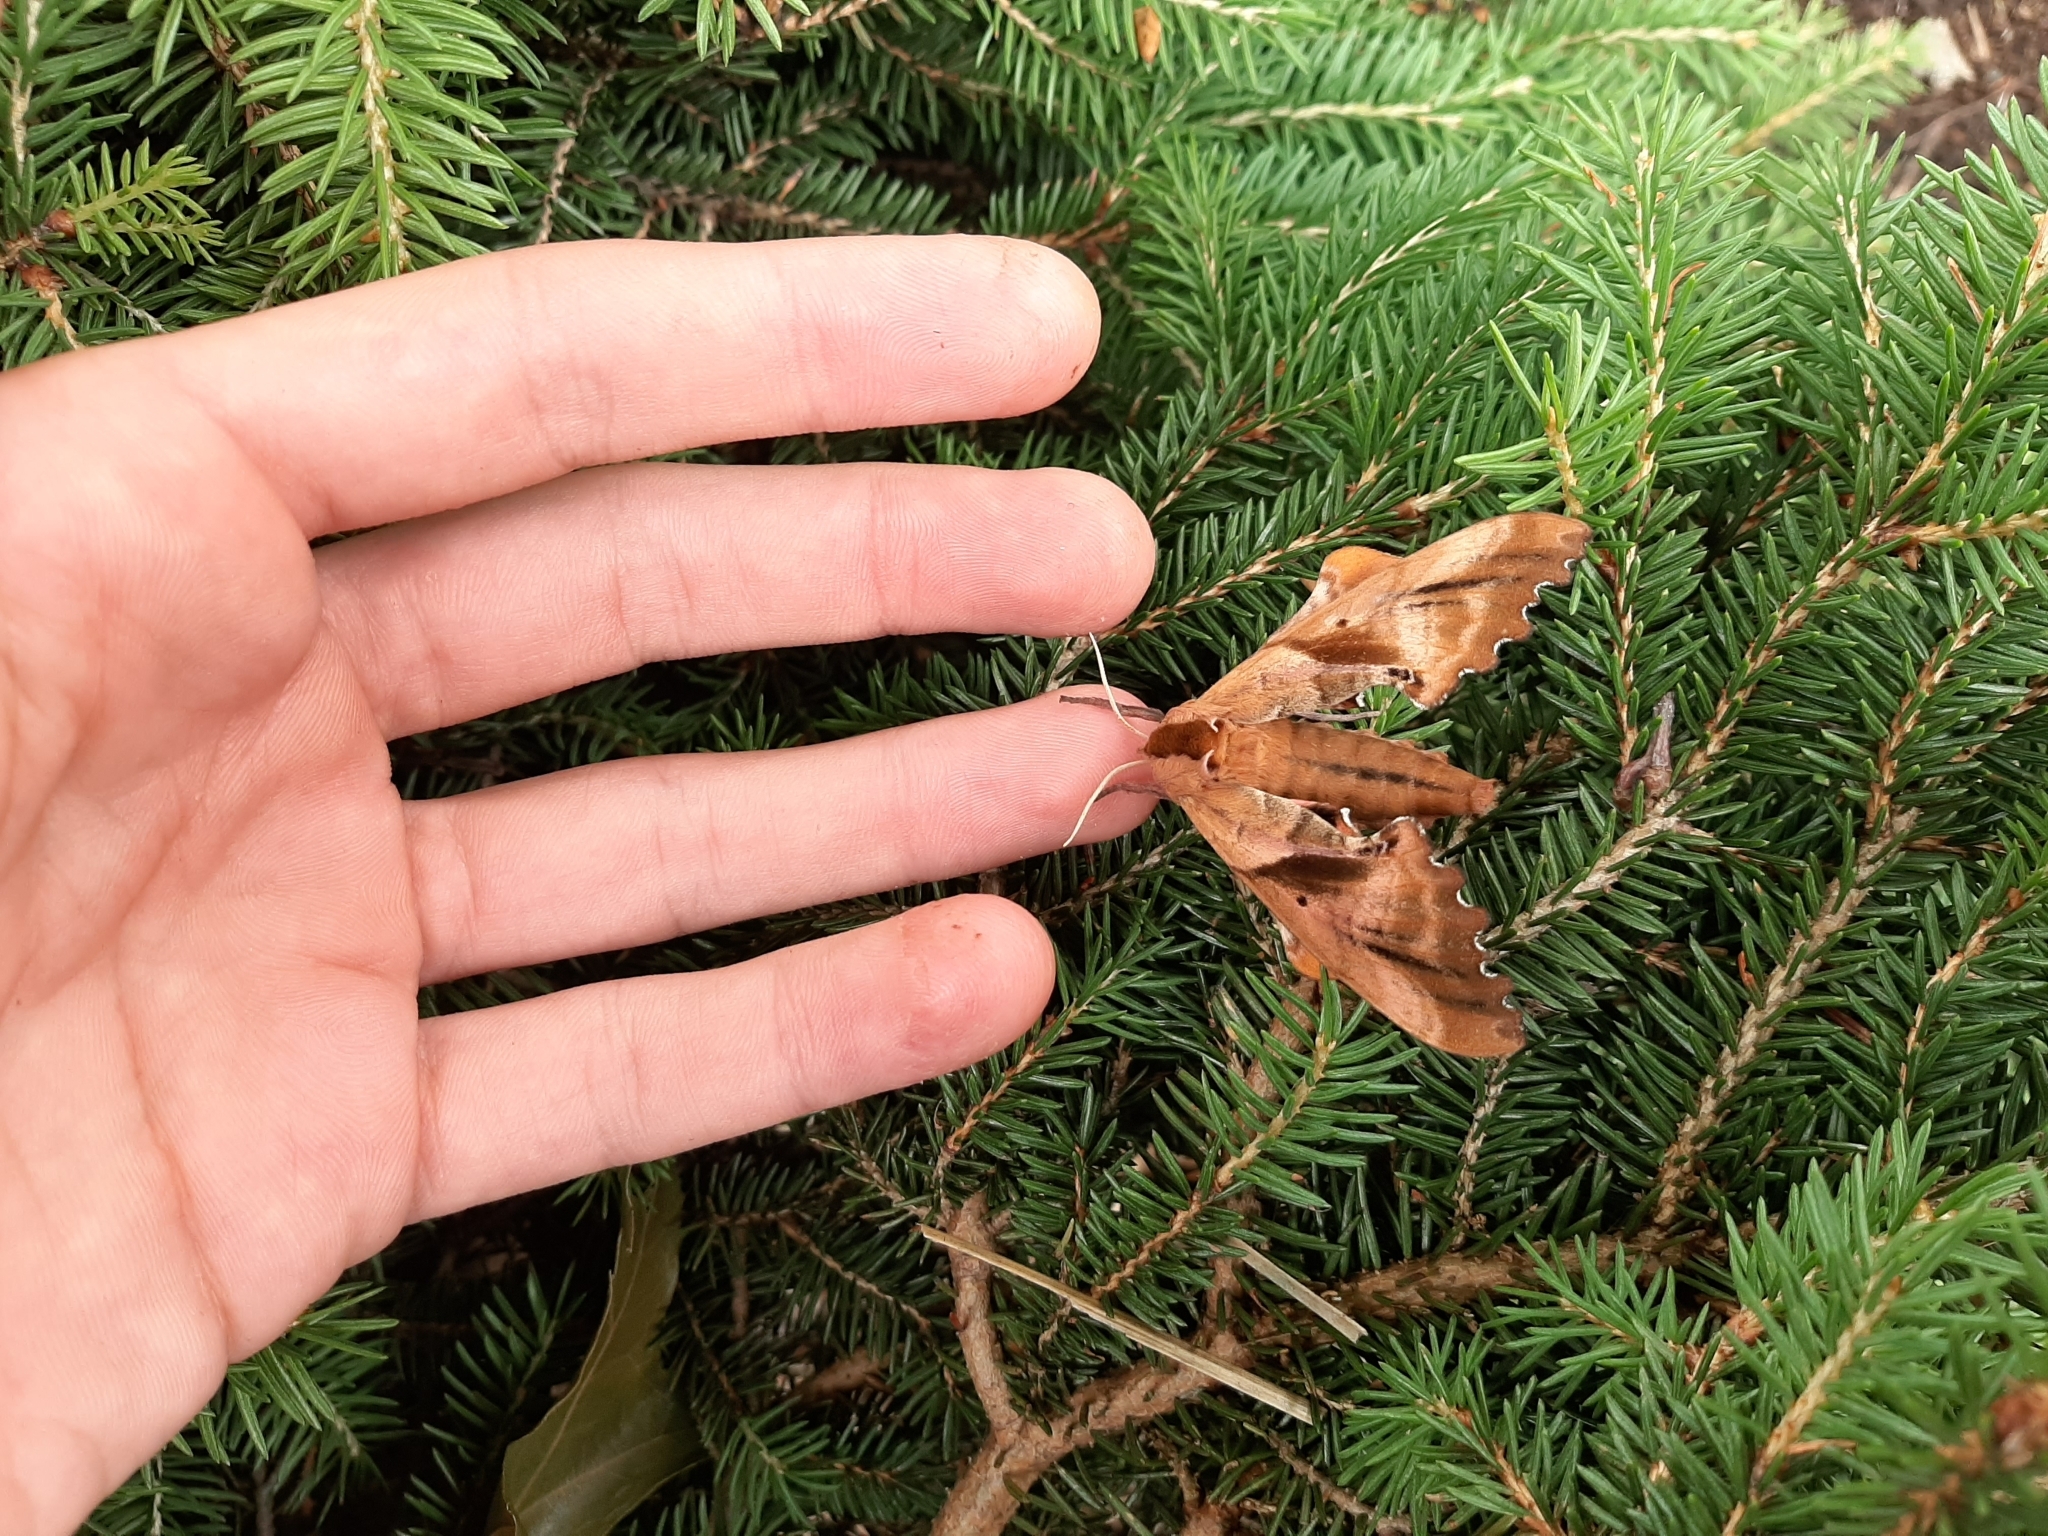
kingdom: Animalia
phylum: Arthropoda
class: Insecta
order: Lepidoptera
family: Sphingidae
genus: Paonias
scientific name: Paonias excaecata
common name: Blind-eyed sphinx
